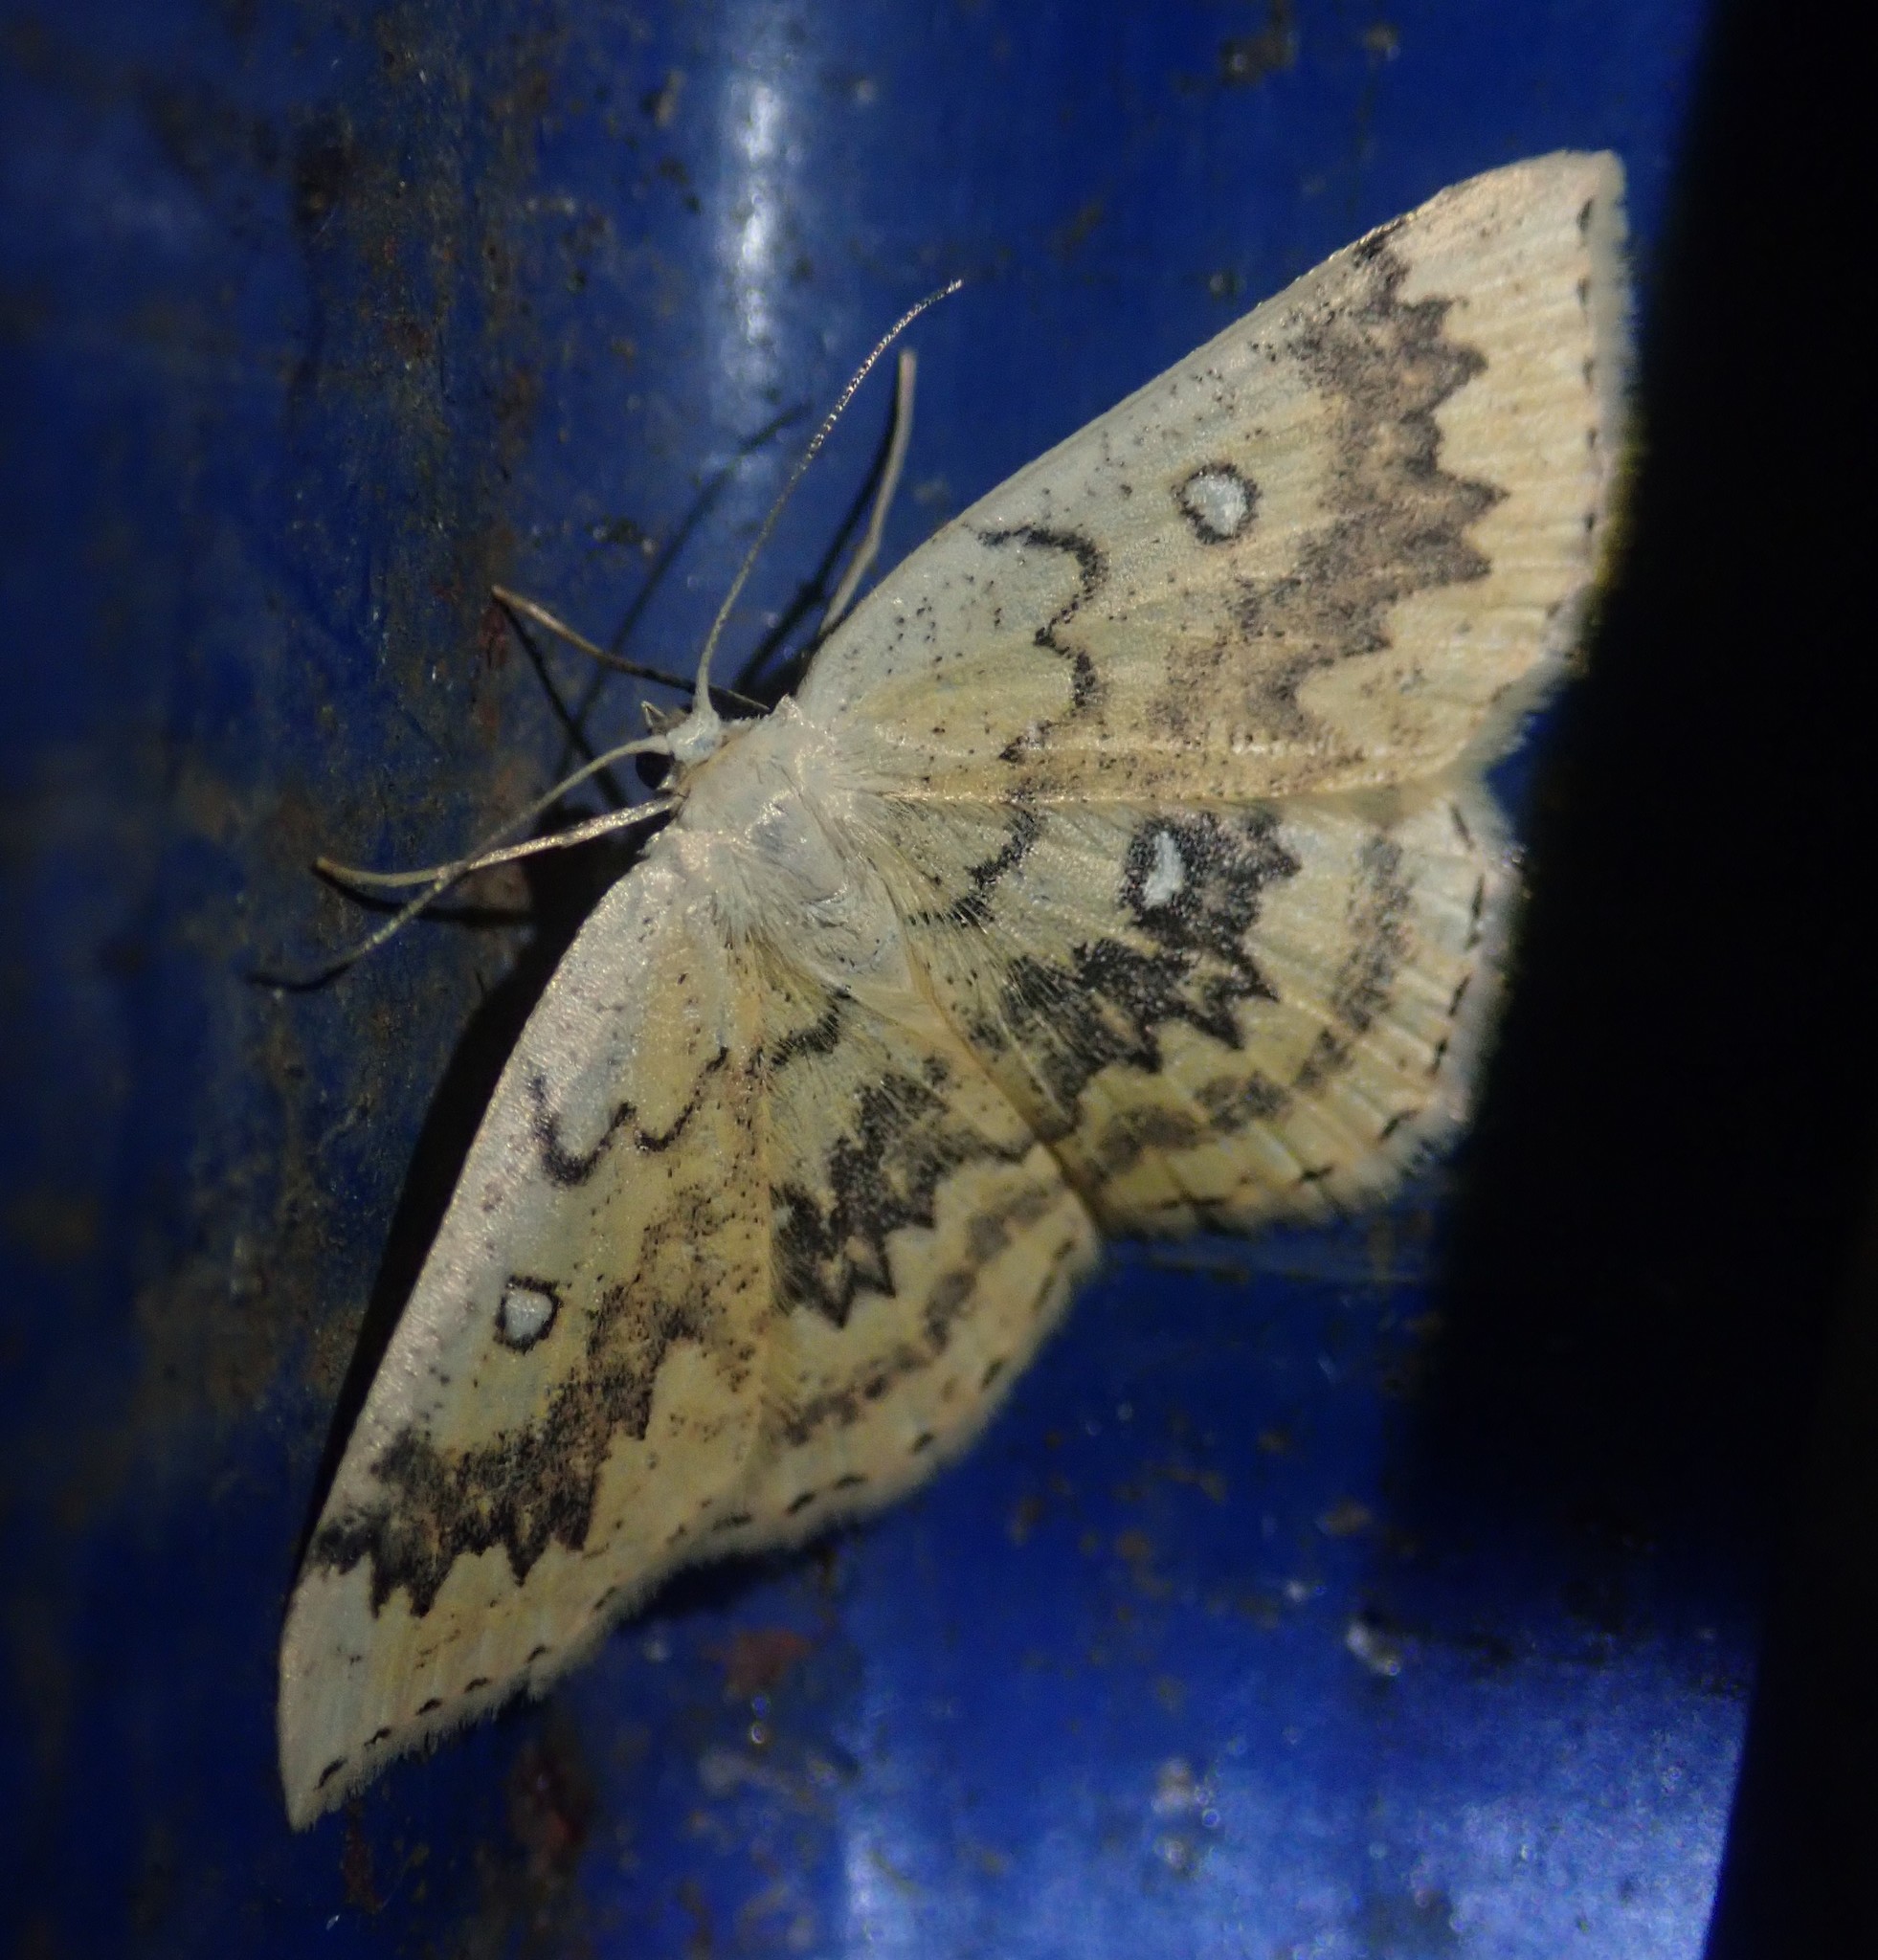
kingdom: Animalia
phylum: Arthropoda
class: Insecta
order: Lepidoptera
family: Geometridae
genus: Cyclophora
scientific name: Cyclophora annularia
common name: Mocha
